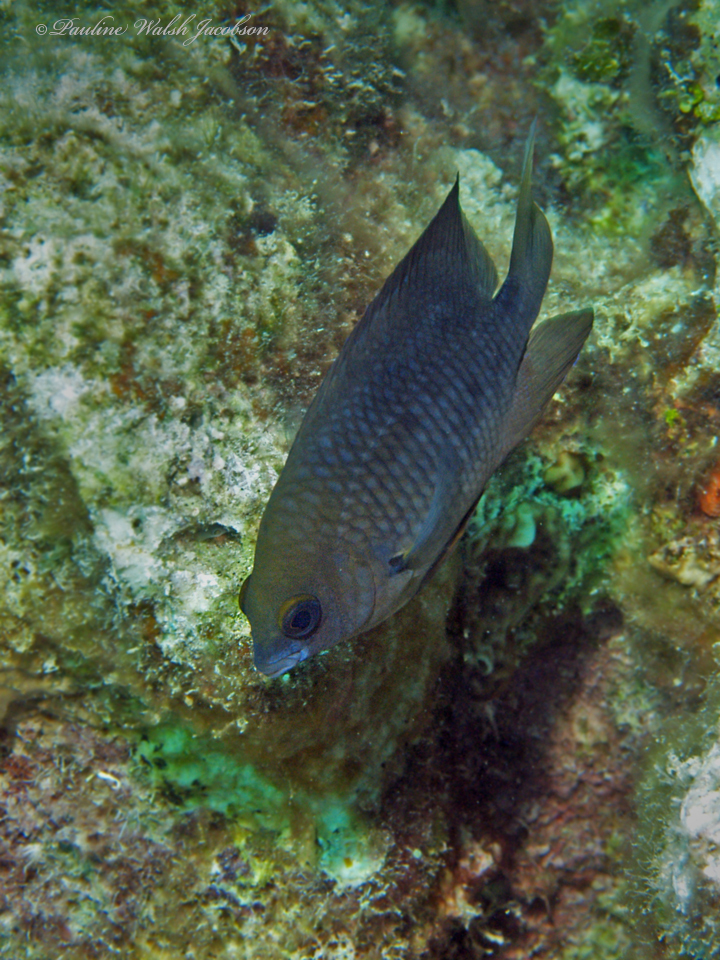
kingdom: Animalia
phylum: Chordata
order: Perciformes
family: Pomacentridae
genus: Stegastes
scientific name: Stegastes planifrons
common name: Threespot damselfish
